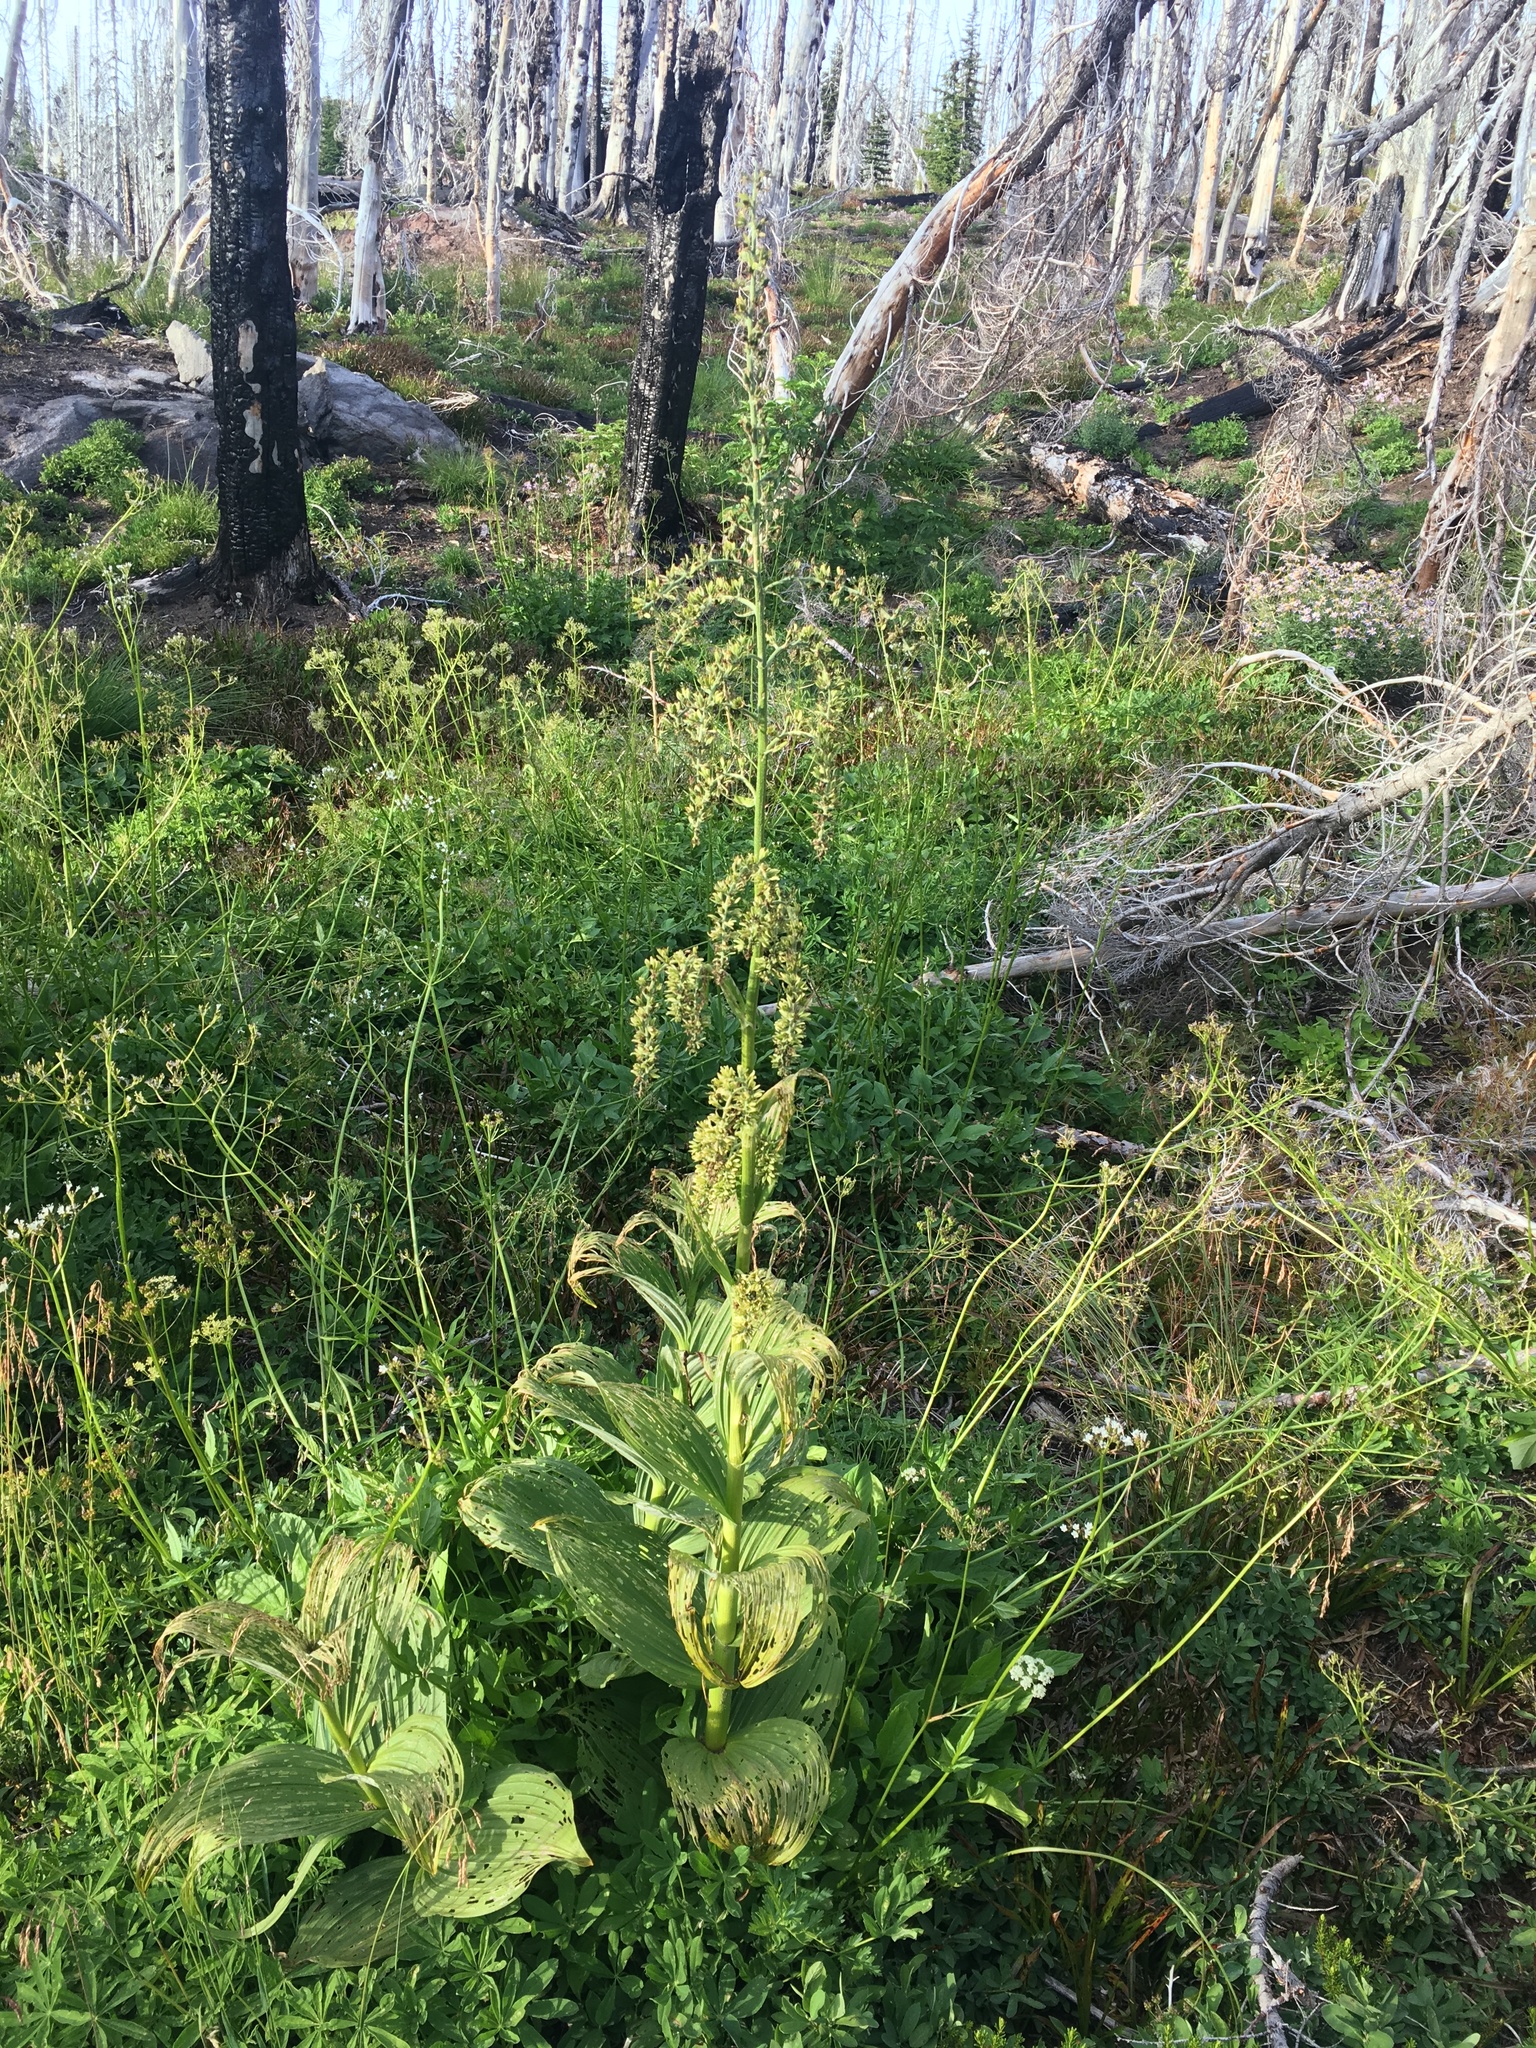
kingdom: Plantae
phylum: Tracheophyta
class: Liliopsida
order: Liliales
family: Melanthiaceae
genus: Veratrum
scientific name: Veratrum viride
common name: American false hellebore
